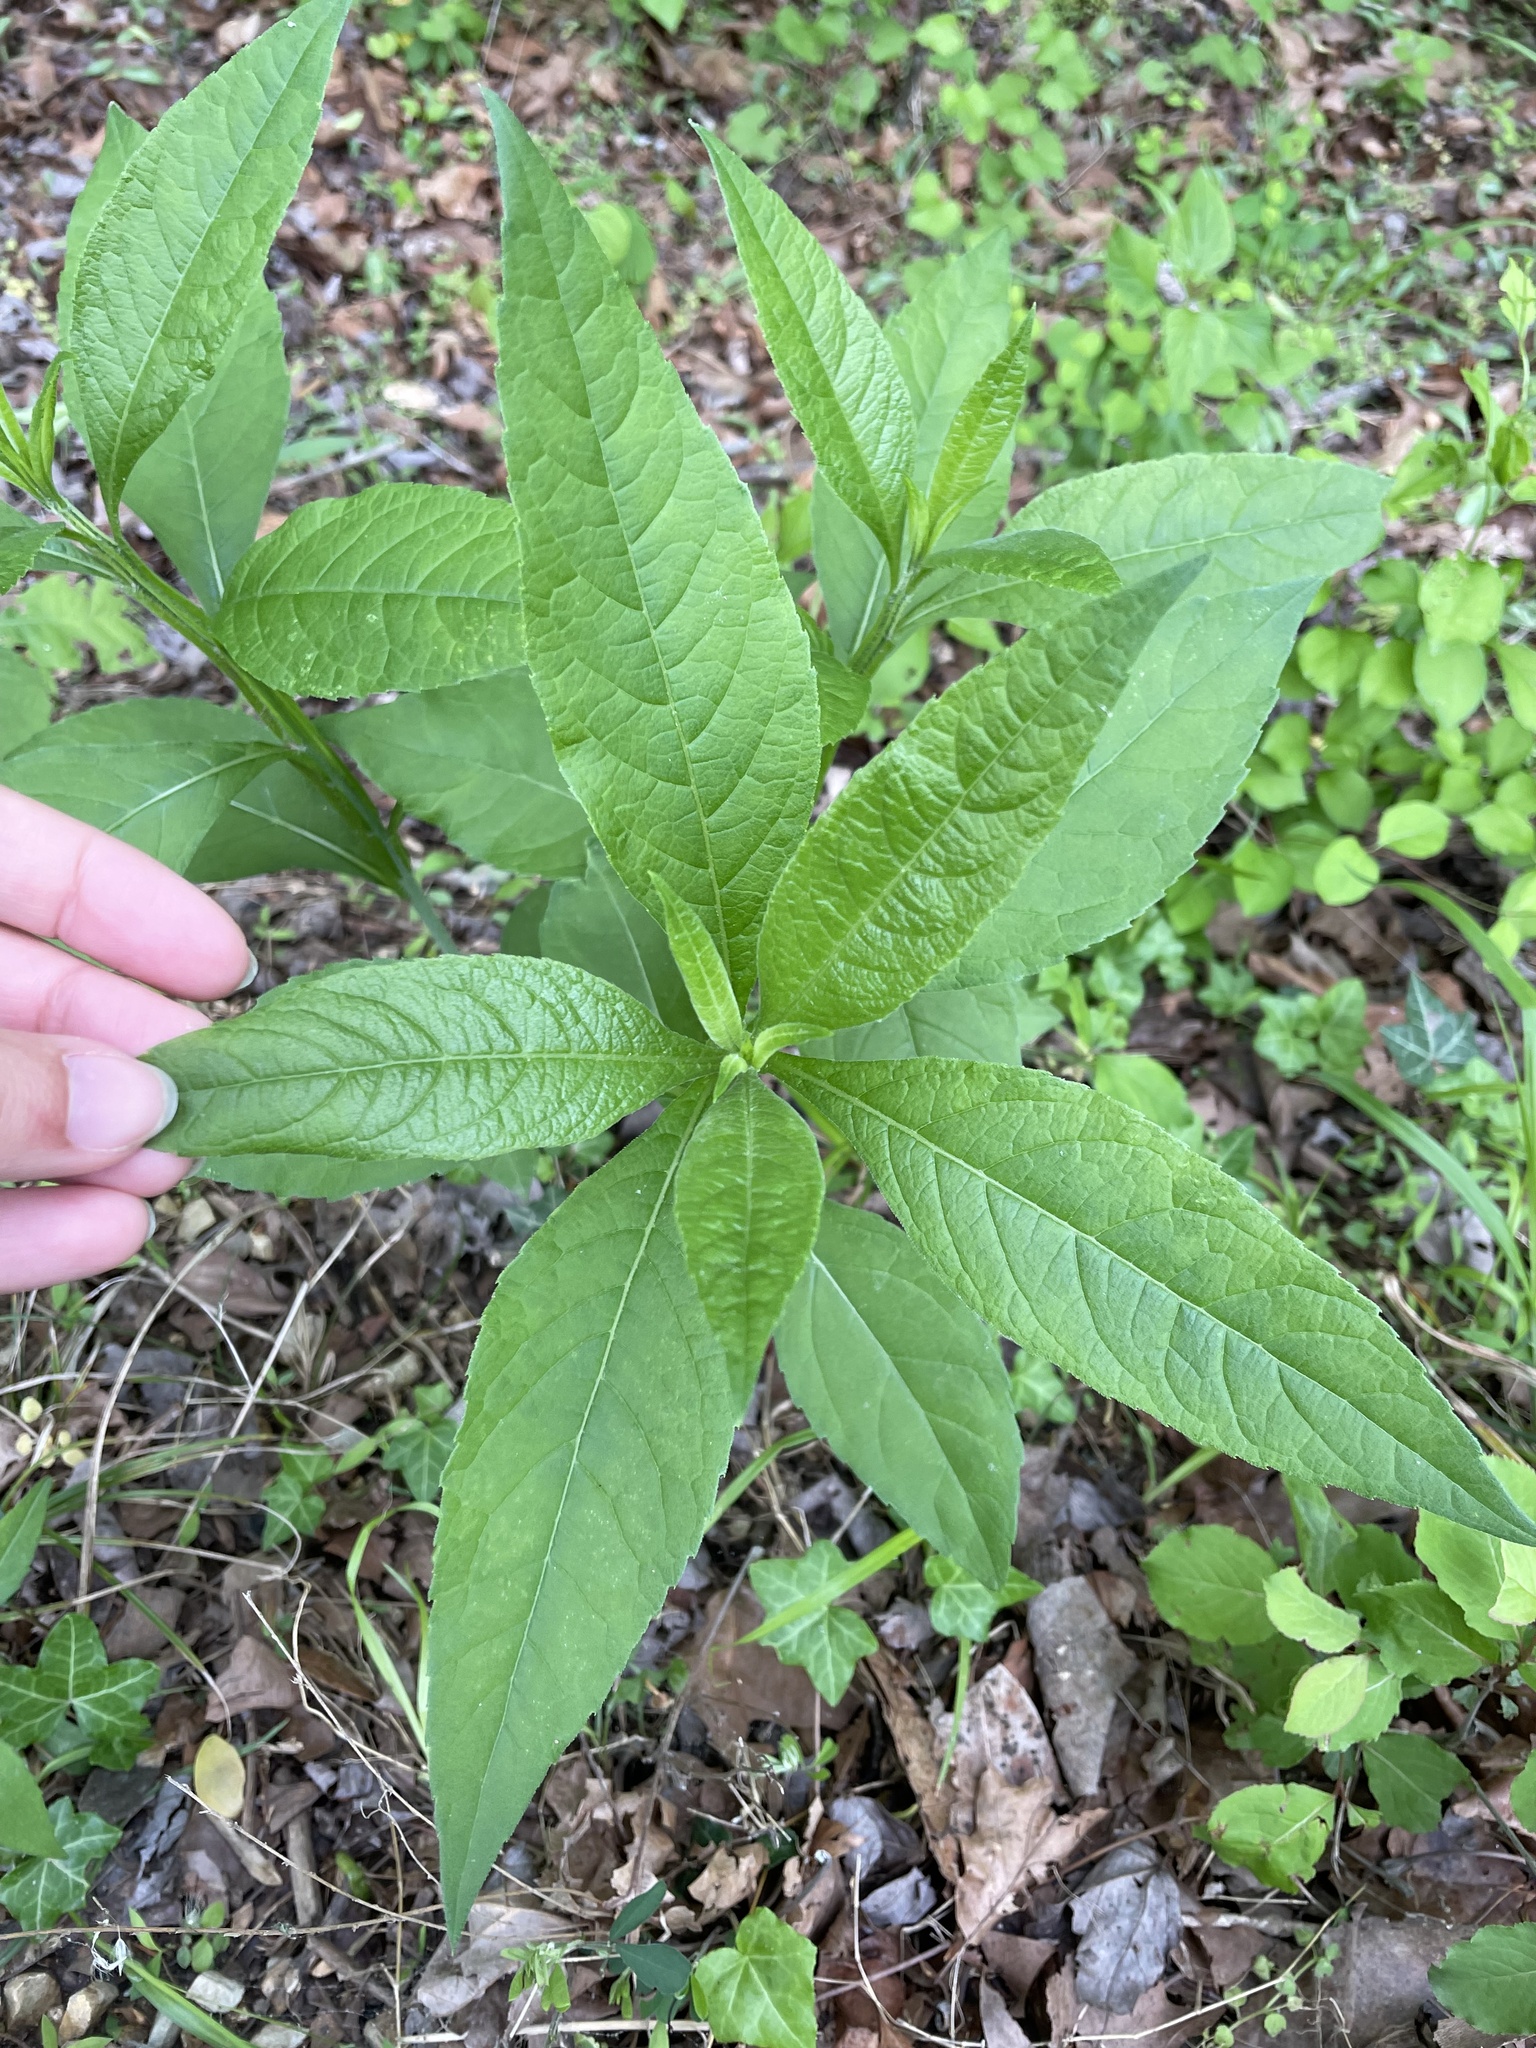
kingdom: Plantae
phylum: Tracheophyta
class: Magnoliopsida
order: Asterales
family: Asteraceae
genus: Verbesina
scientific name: Verbesina alternifolia
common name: Wingstem
